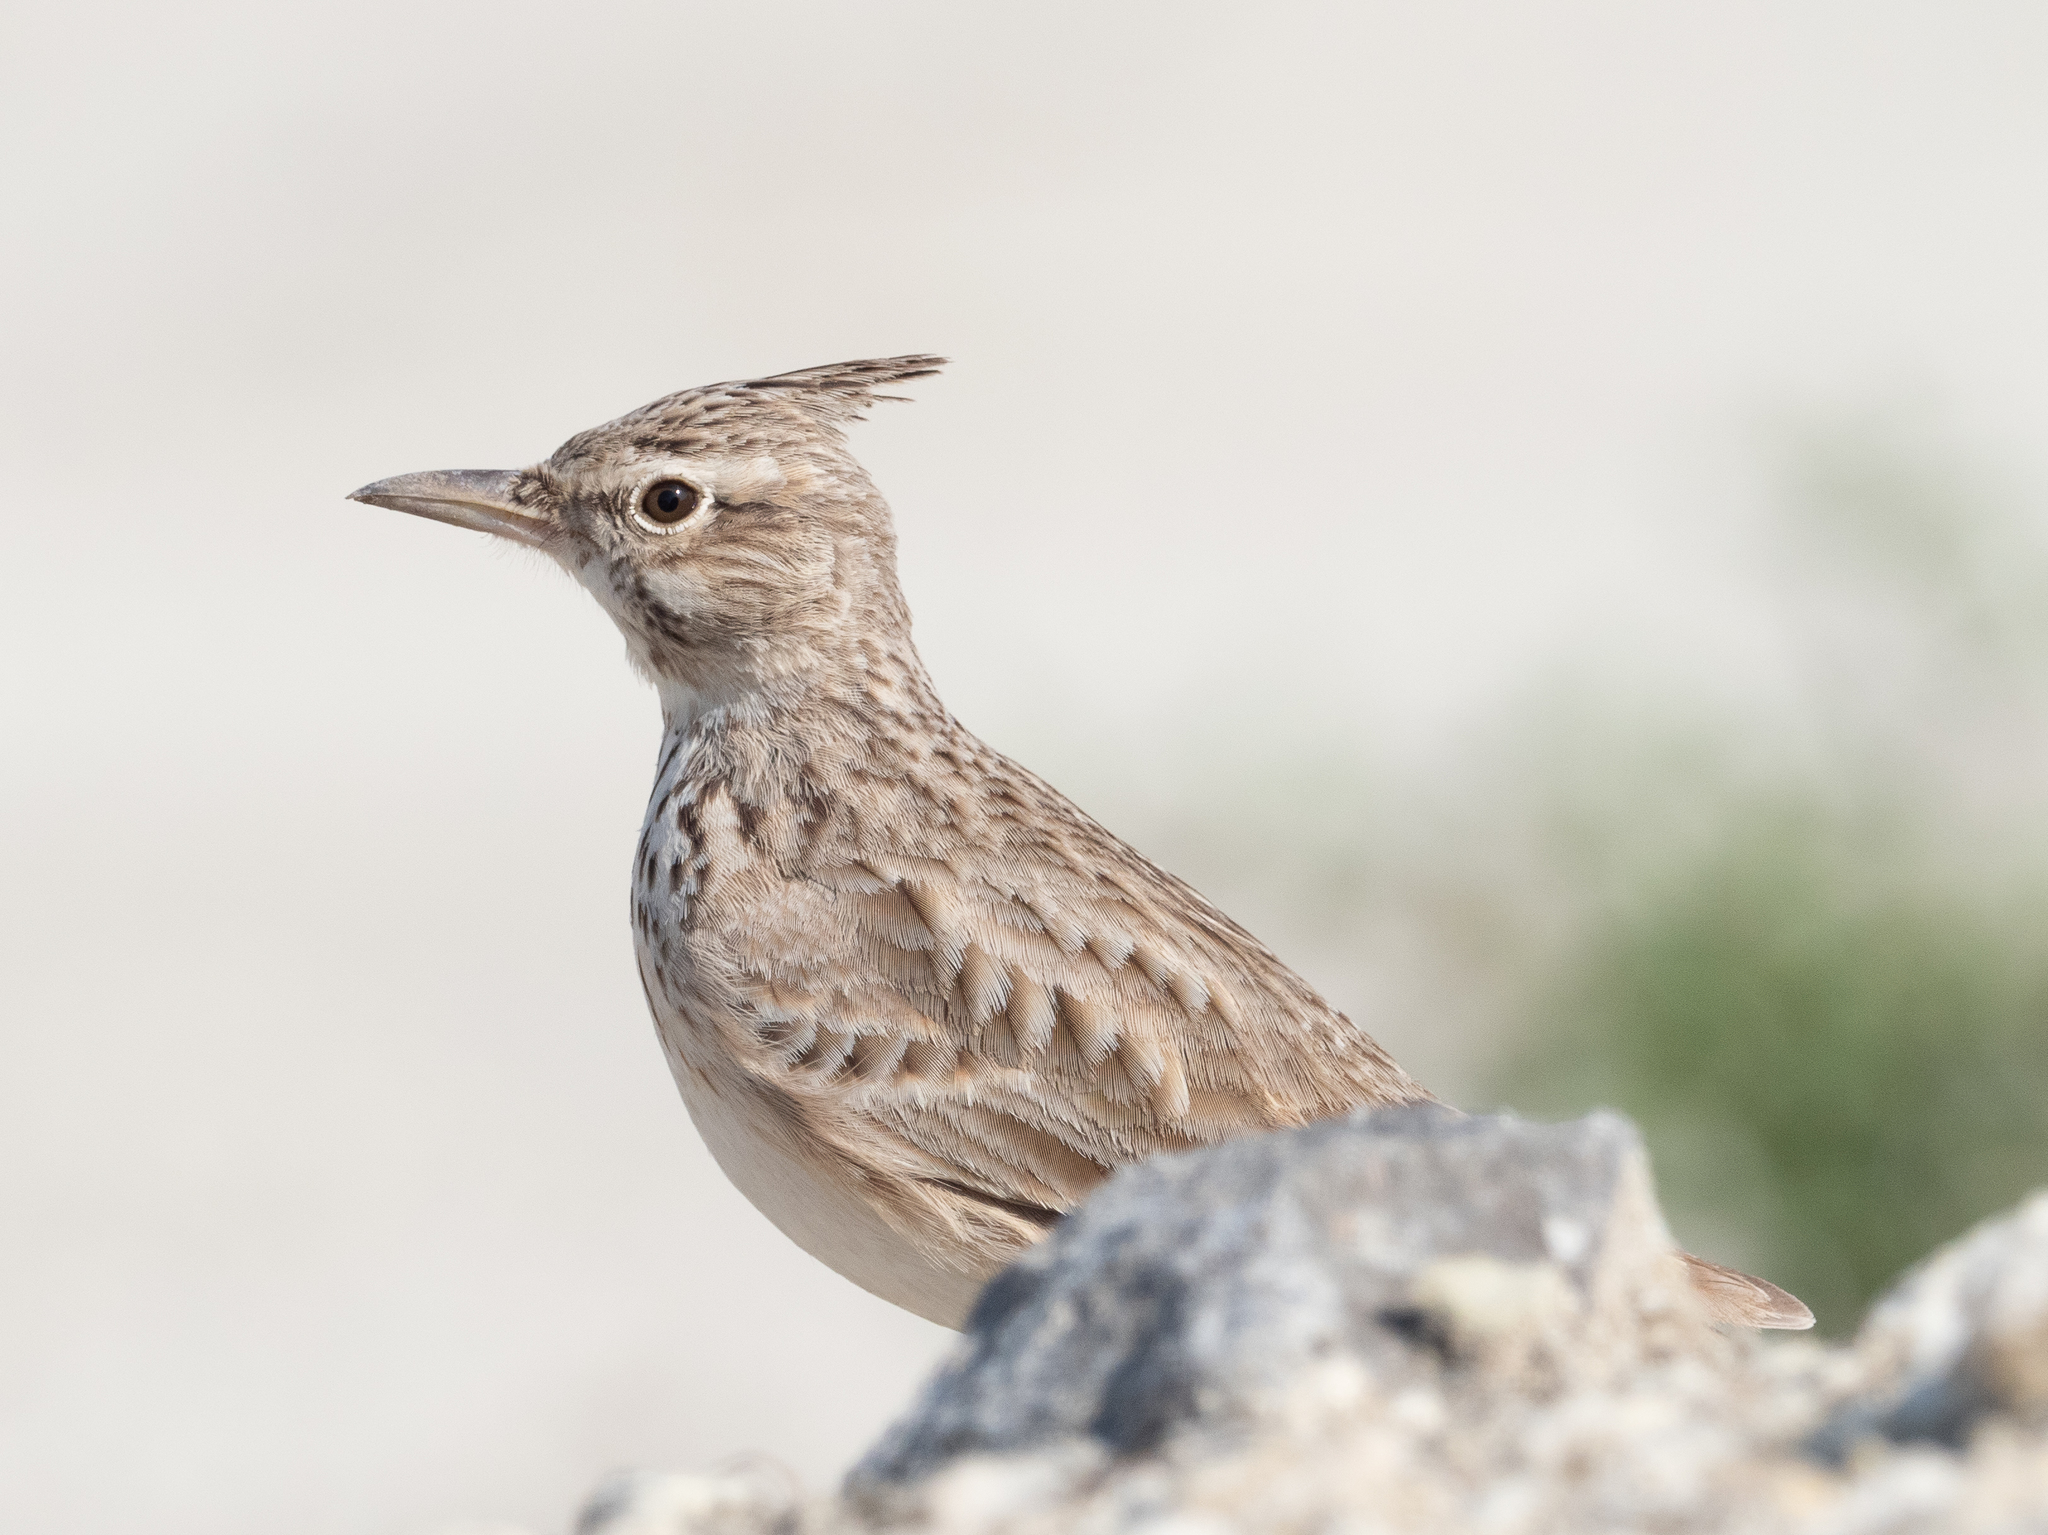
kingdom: Animalia
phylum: Chordata
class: Aves
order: Passeriformes
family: Alaudidae
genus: Galerida
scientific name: Galerida cristata
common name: Crested lark
